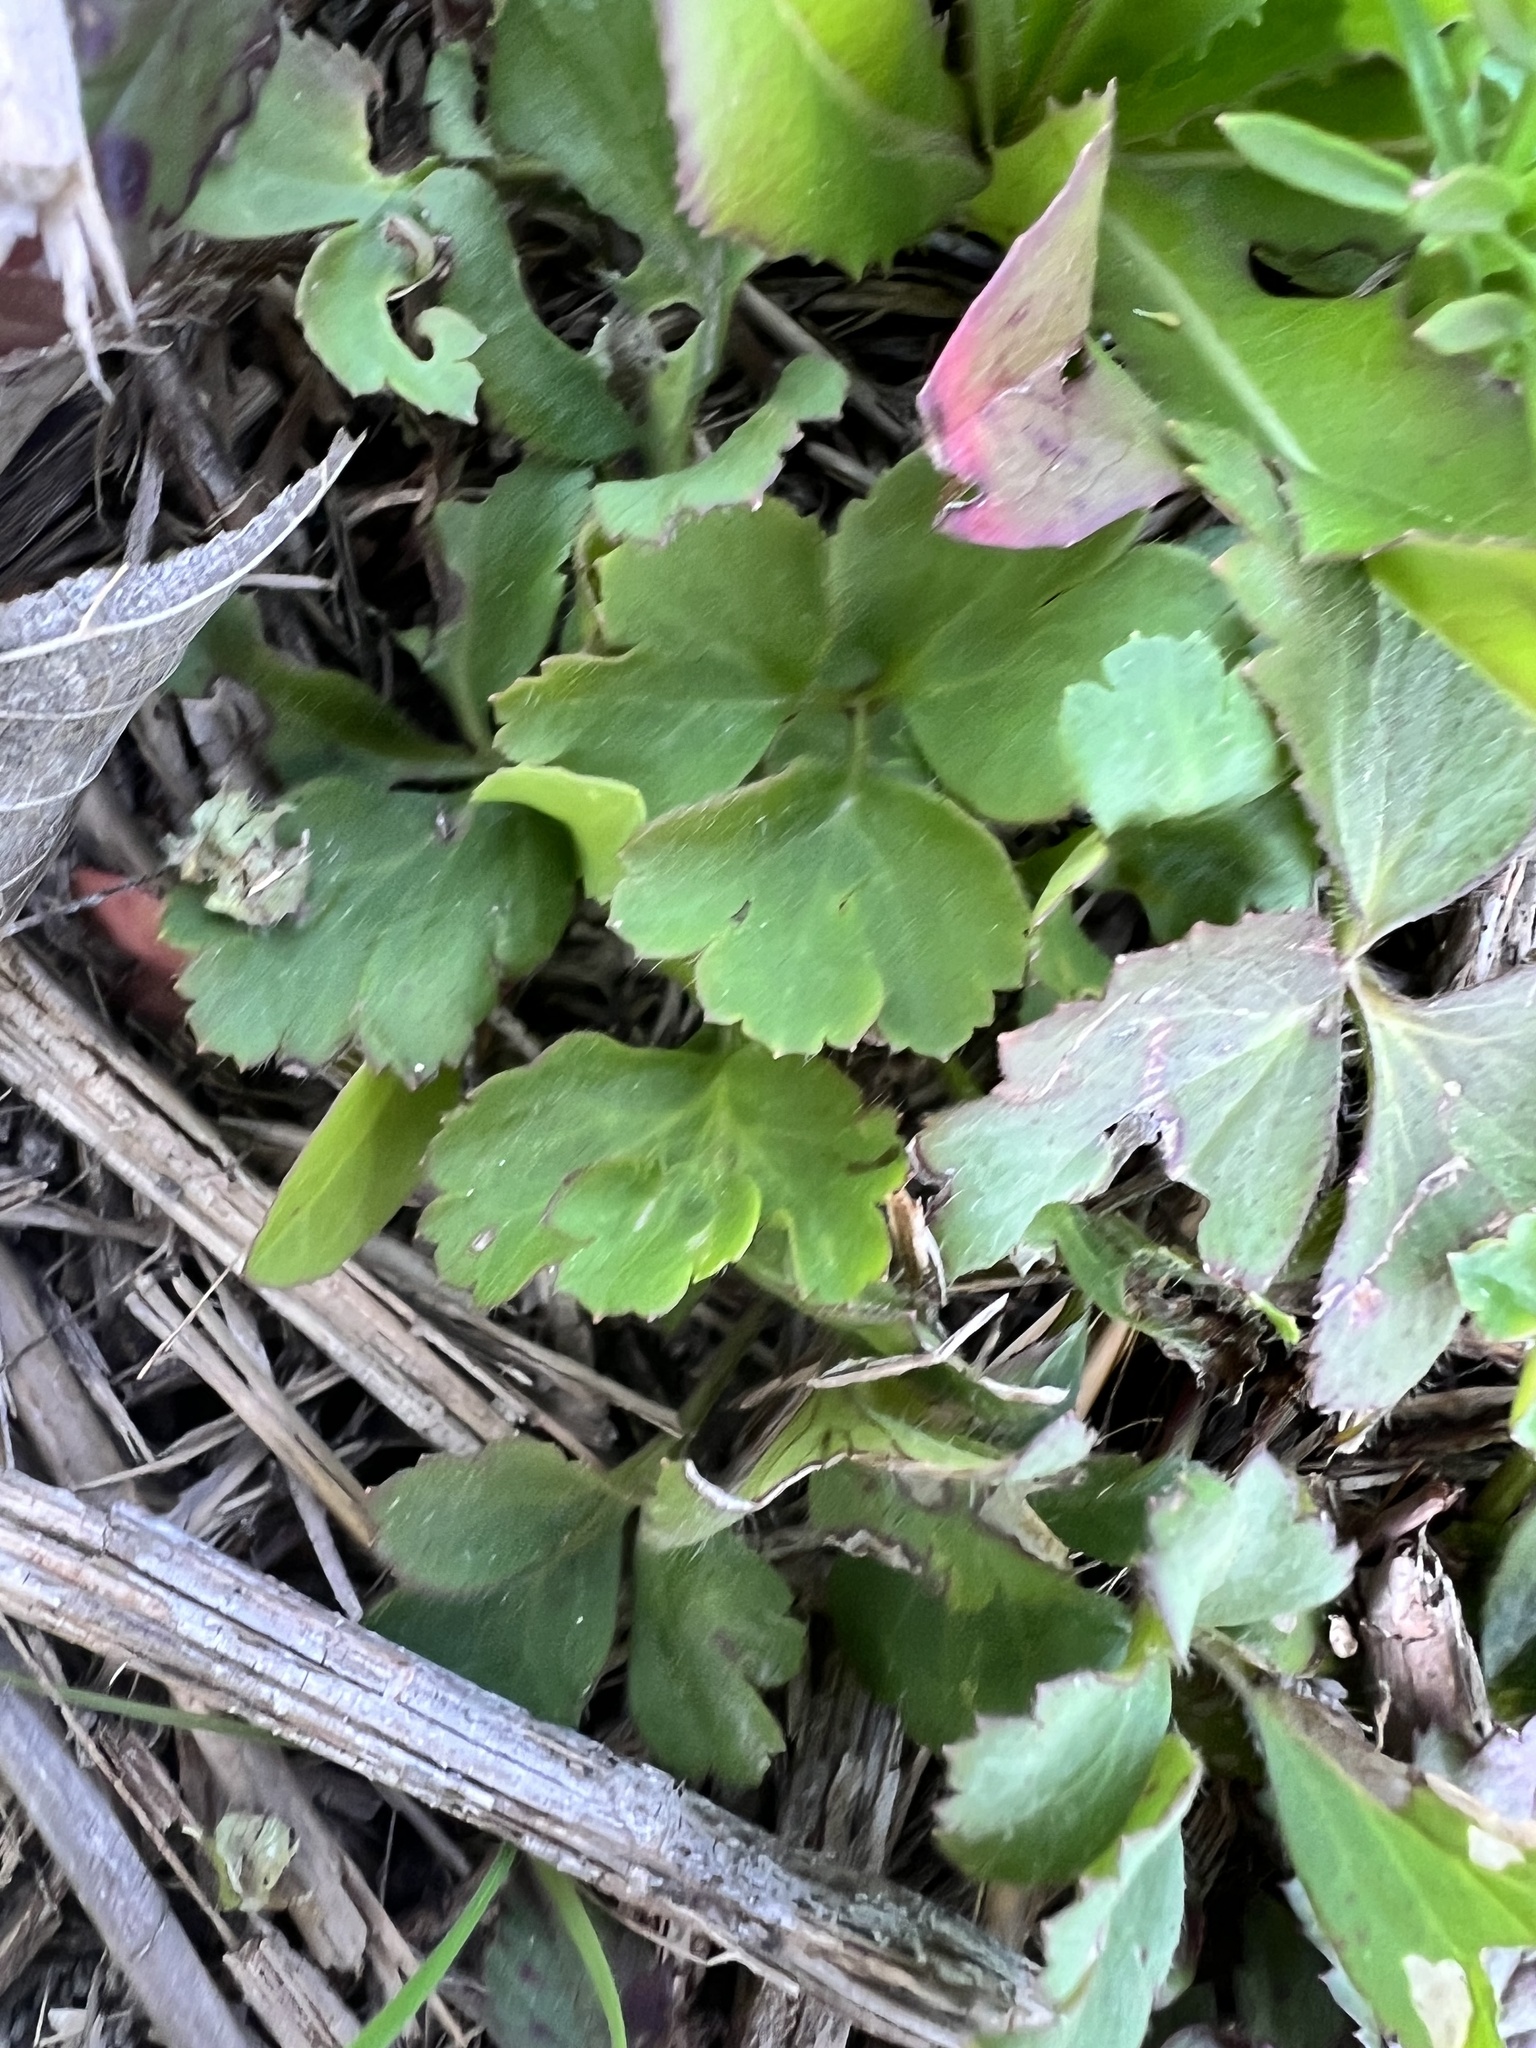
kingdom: Plantae
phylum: Tracheophyta
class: Magnoliopsida
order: Ranunculales
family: Ranunculaceae
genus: Anemone
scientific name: Anemone berlandieri
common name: Ten-petal anemone
